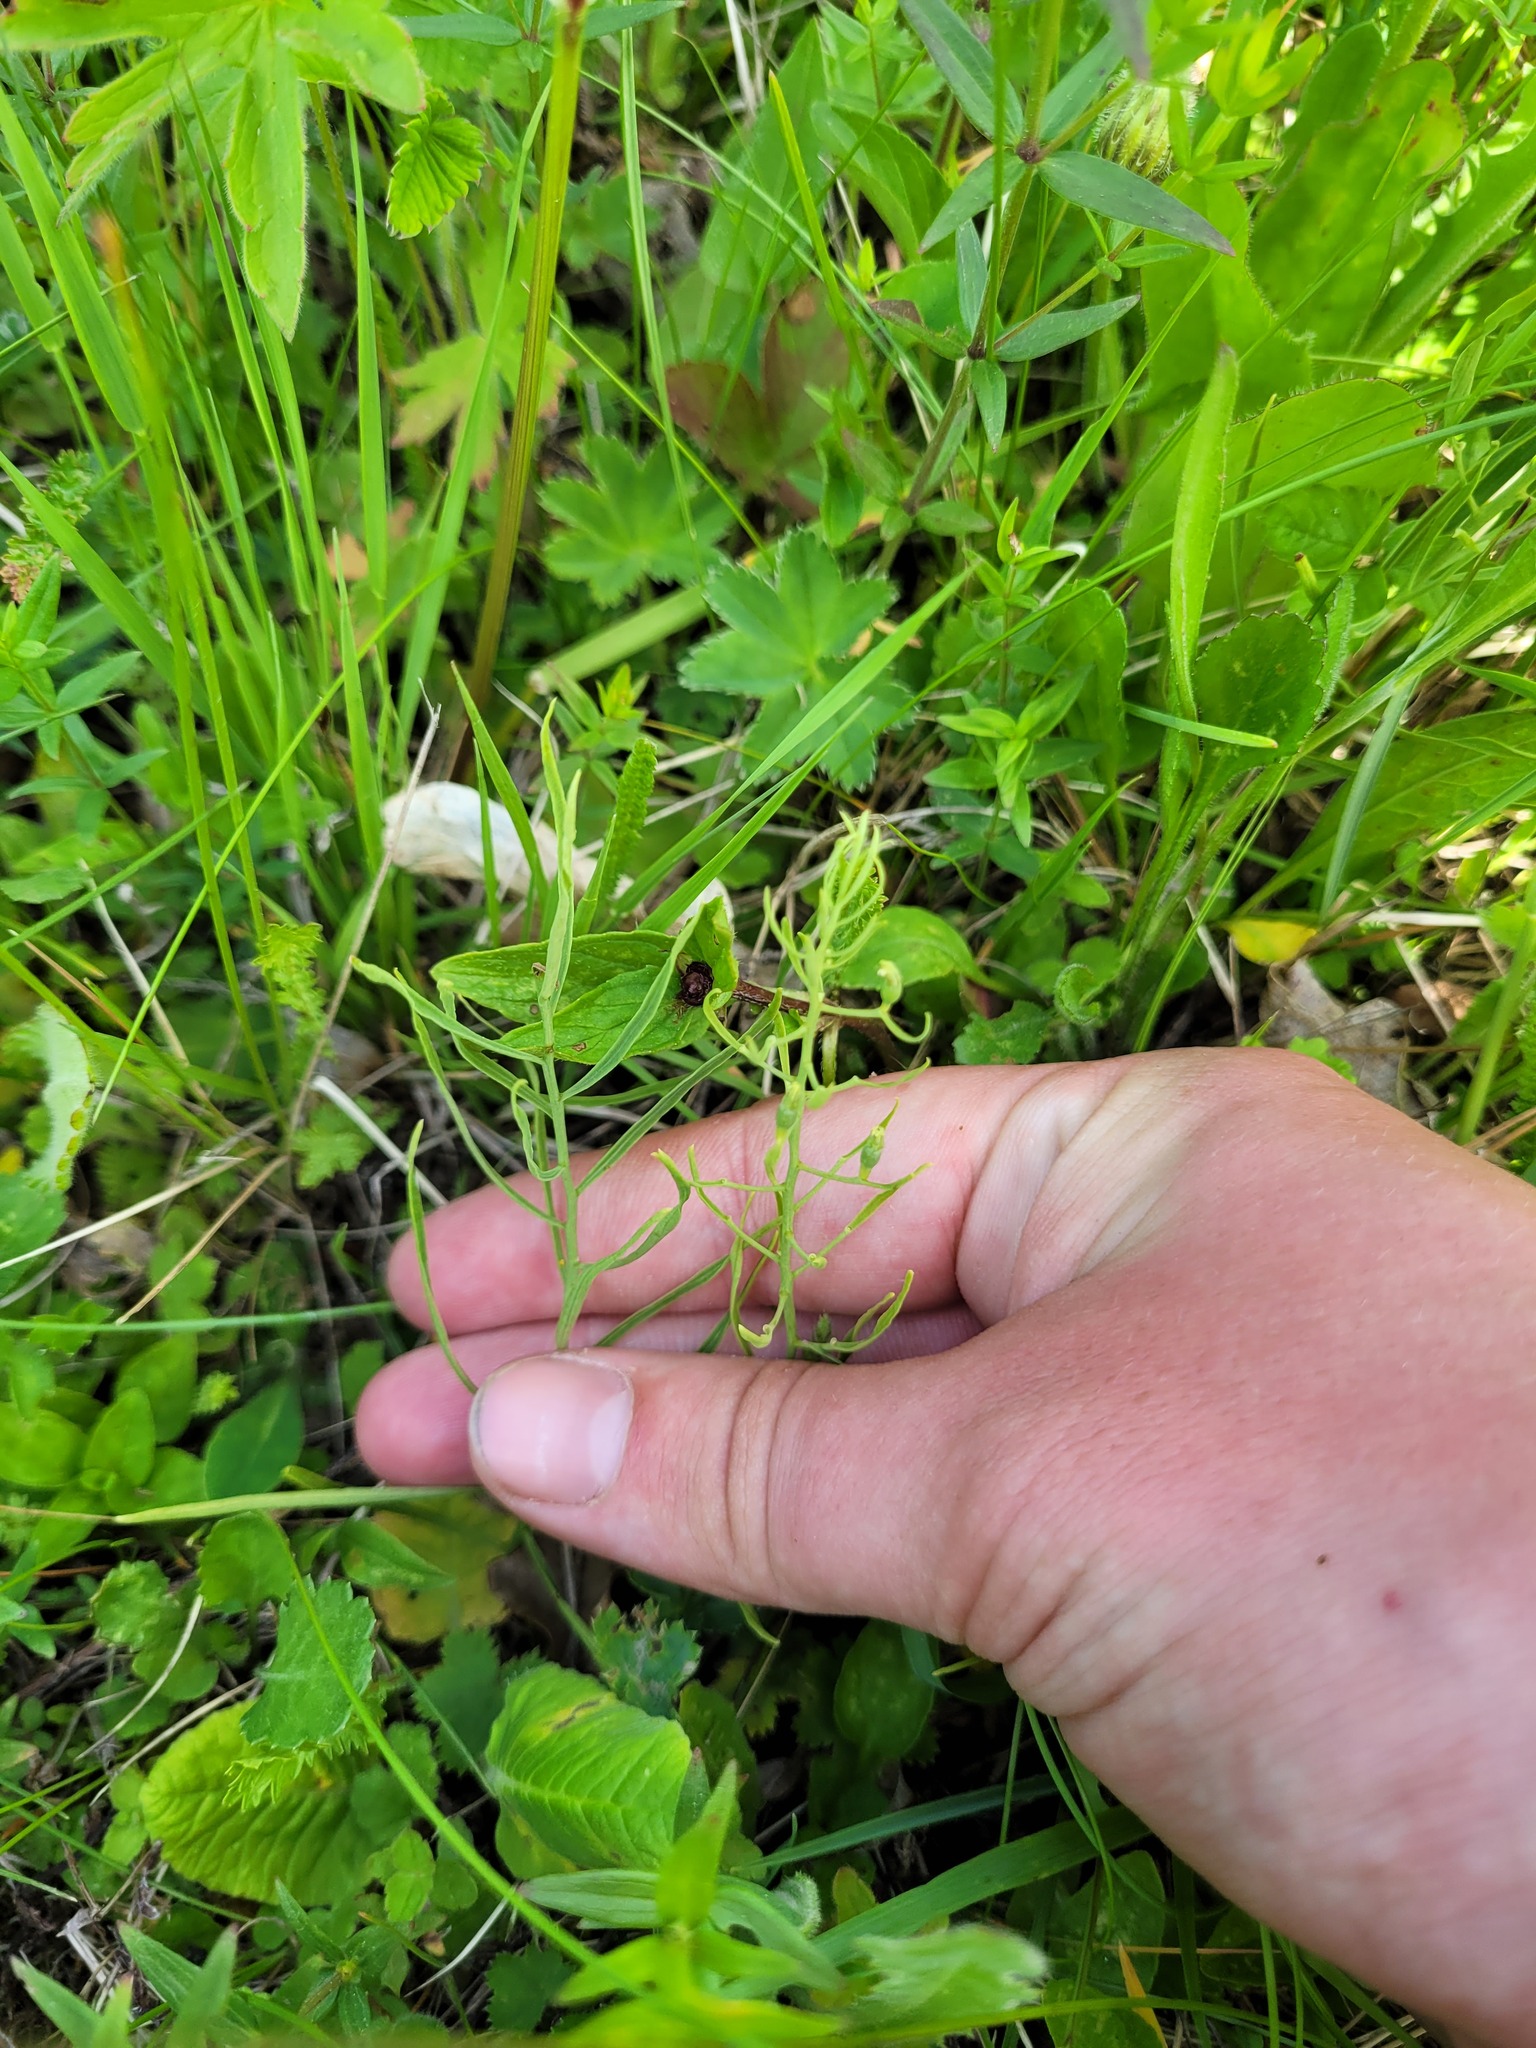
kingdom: Plantae
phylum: Tracheophyta
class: Magnoliopsida
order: Santalales
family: Thesiaceae
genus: Thesium
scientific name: Thesium ebracteatum
